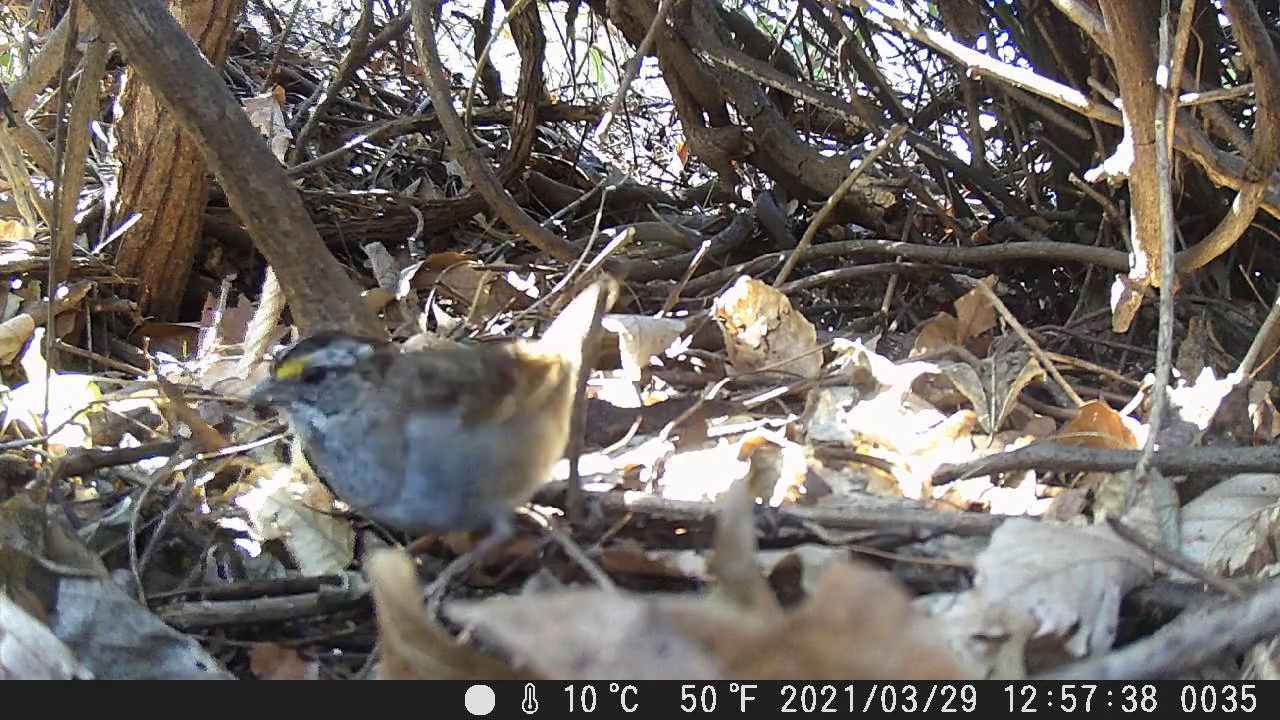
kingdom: Animalia
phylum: Chordata
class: Aves
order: Passeriformes
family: Passerellidae
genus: Zonotrichia
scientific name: Zonotrichia albicollis
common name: White-throated sparrow
